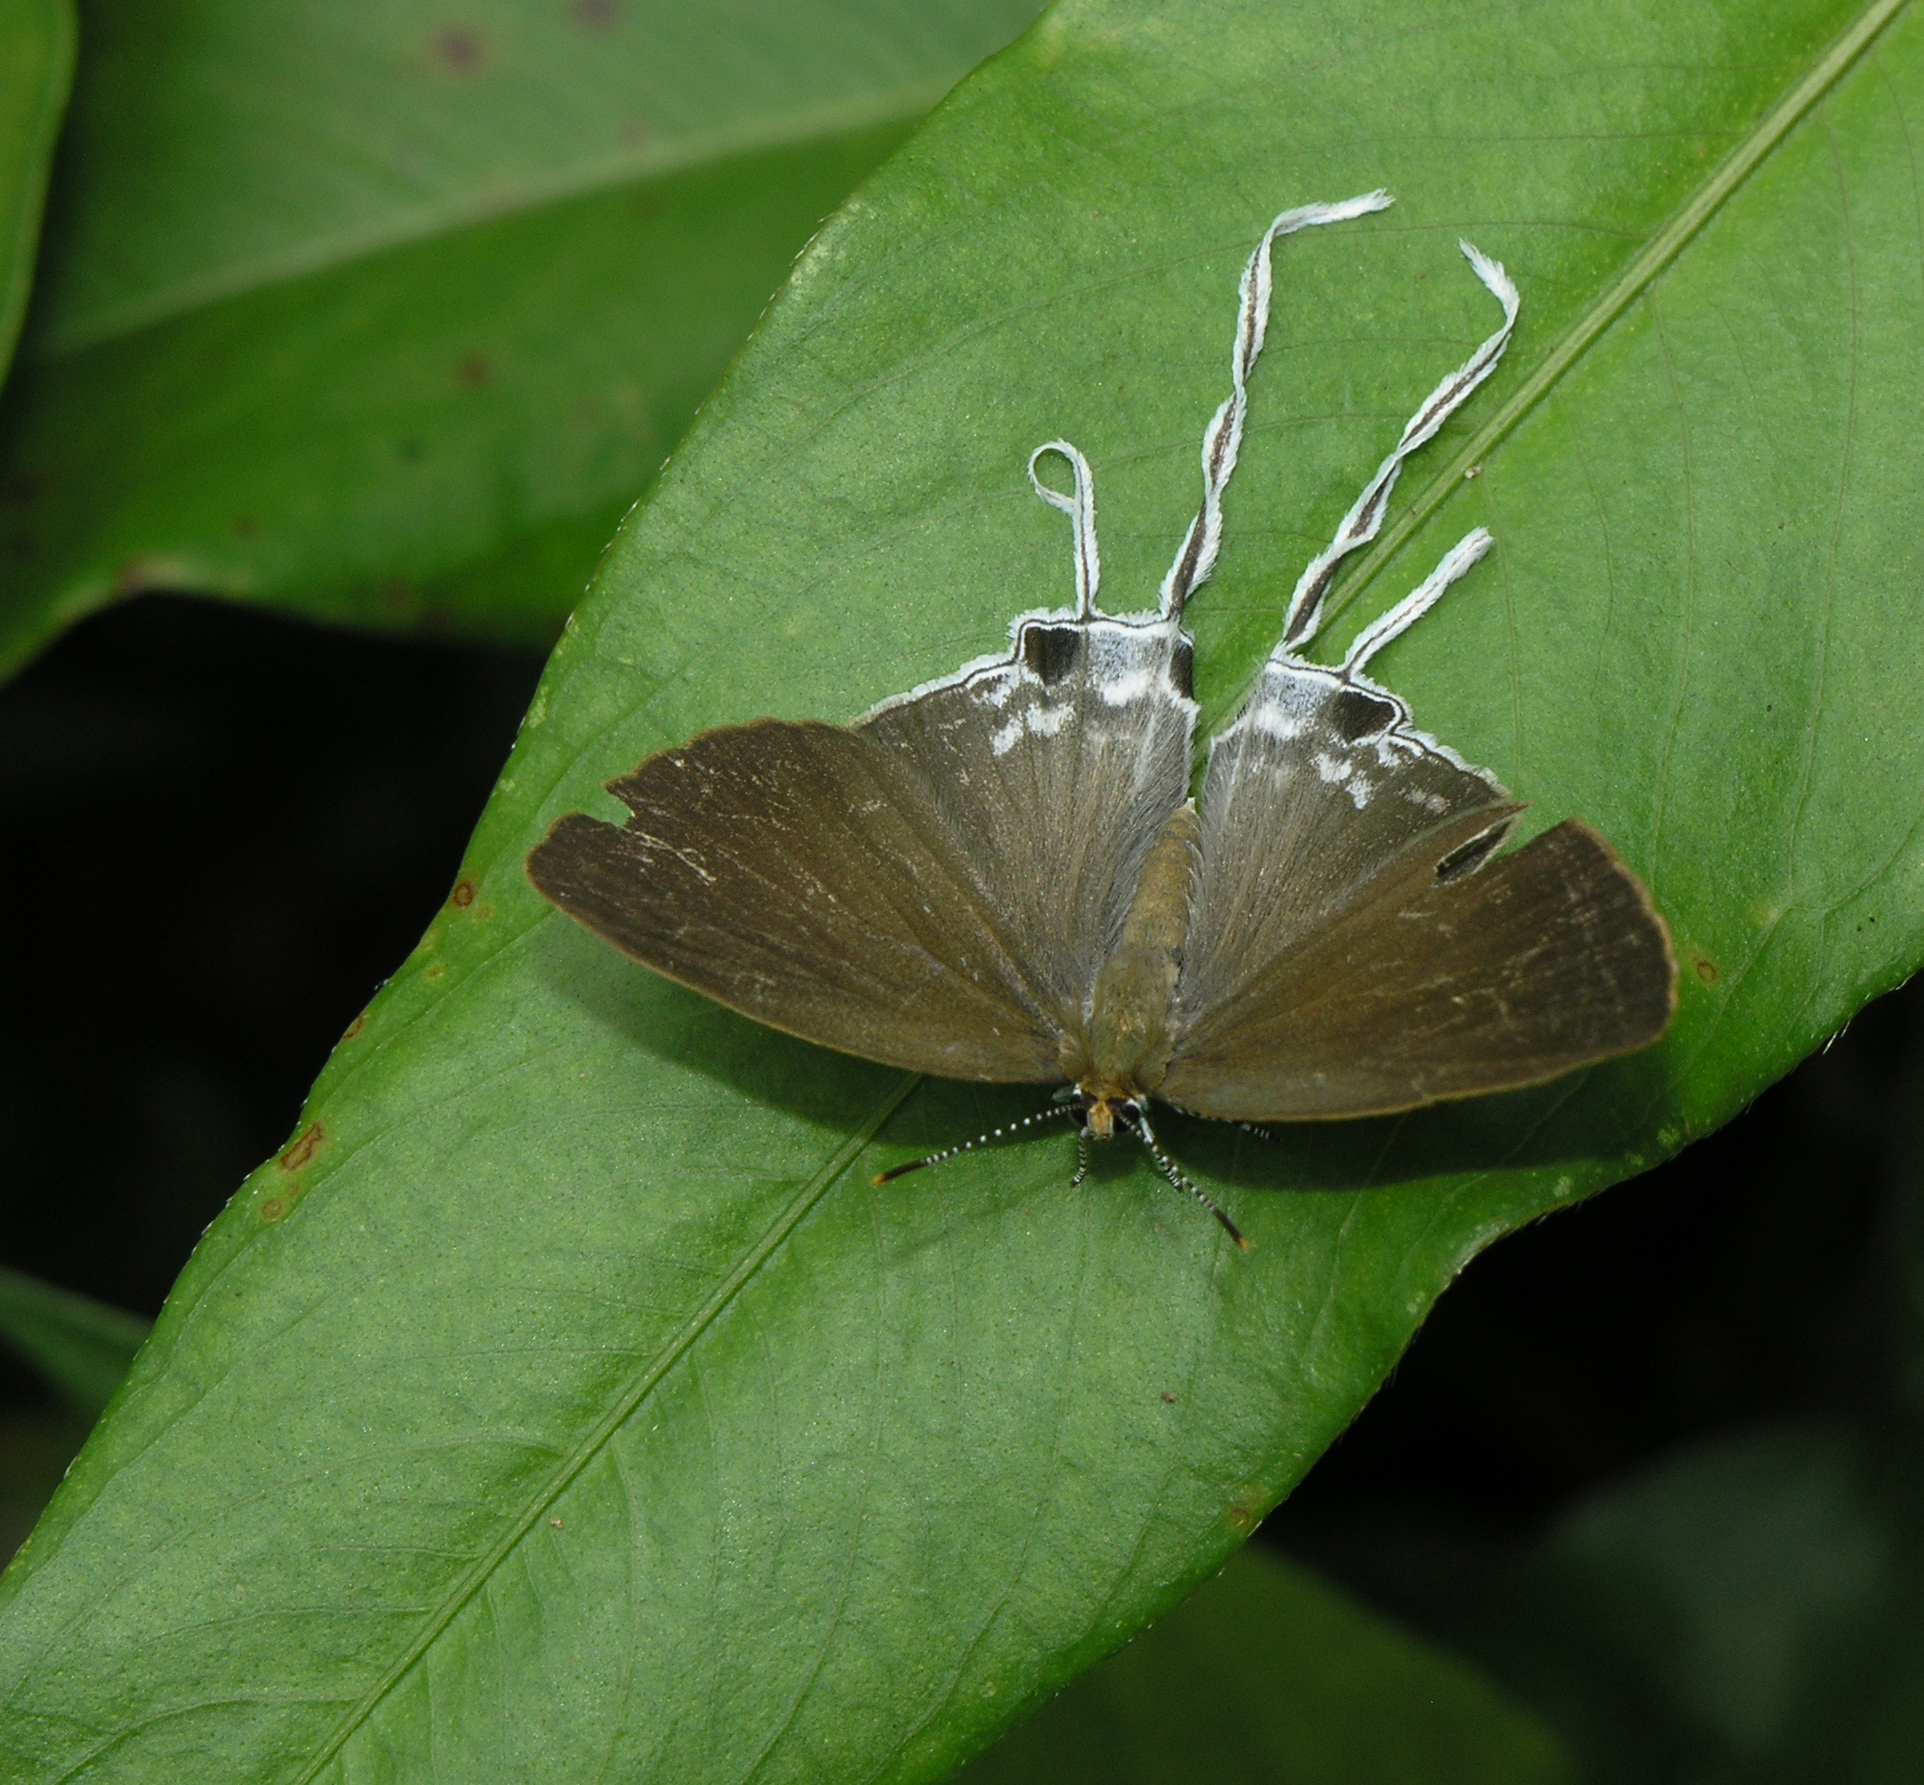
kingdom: Animalia
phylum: Arthropoda
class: Insecta
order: Lepidoptera
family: Lycaenidae
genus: Zeltus
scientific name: Zeltus amasa
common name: Fluffy tit
